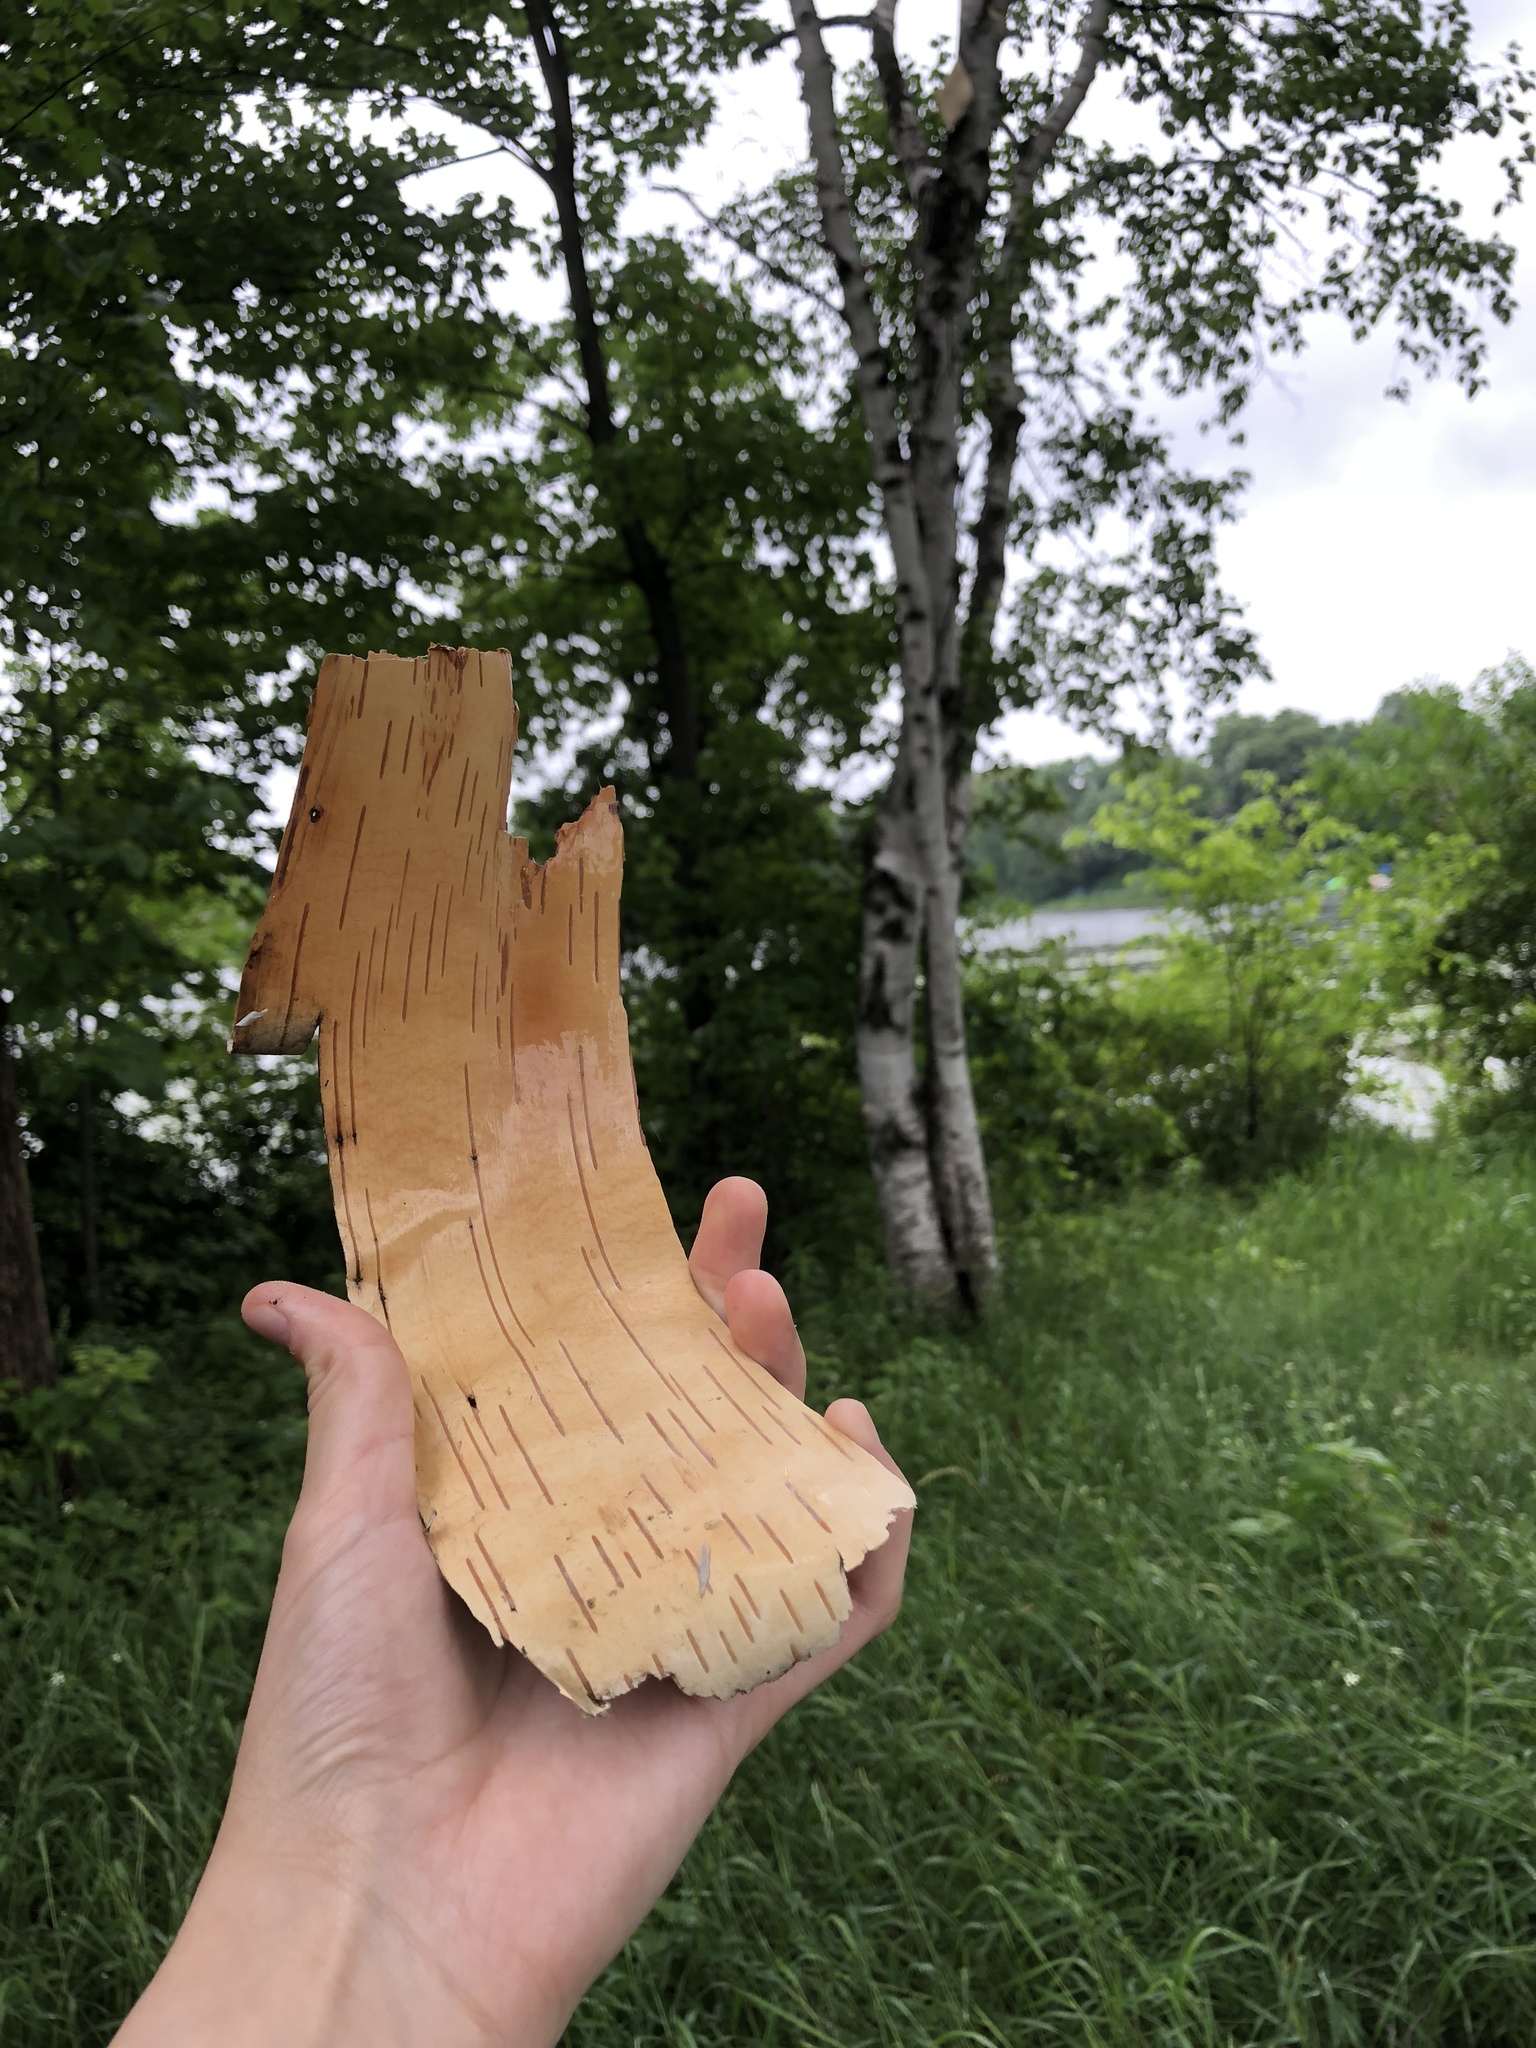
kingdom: Plantae
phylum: Tracheophyta
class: Magnoliopsida
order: Fagales
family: Betulaceae
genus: Betula
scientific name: Betula papyrifera
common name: Paper birch
